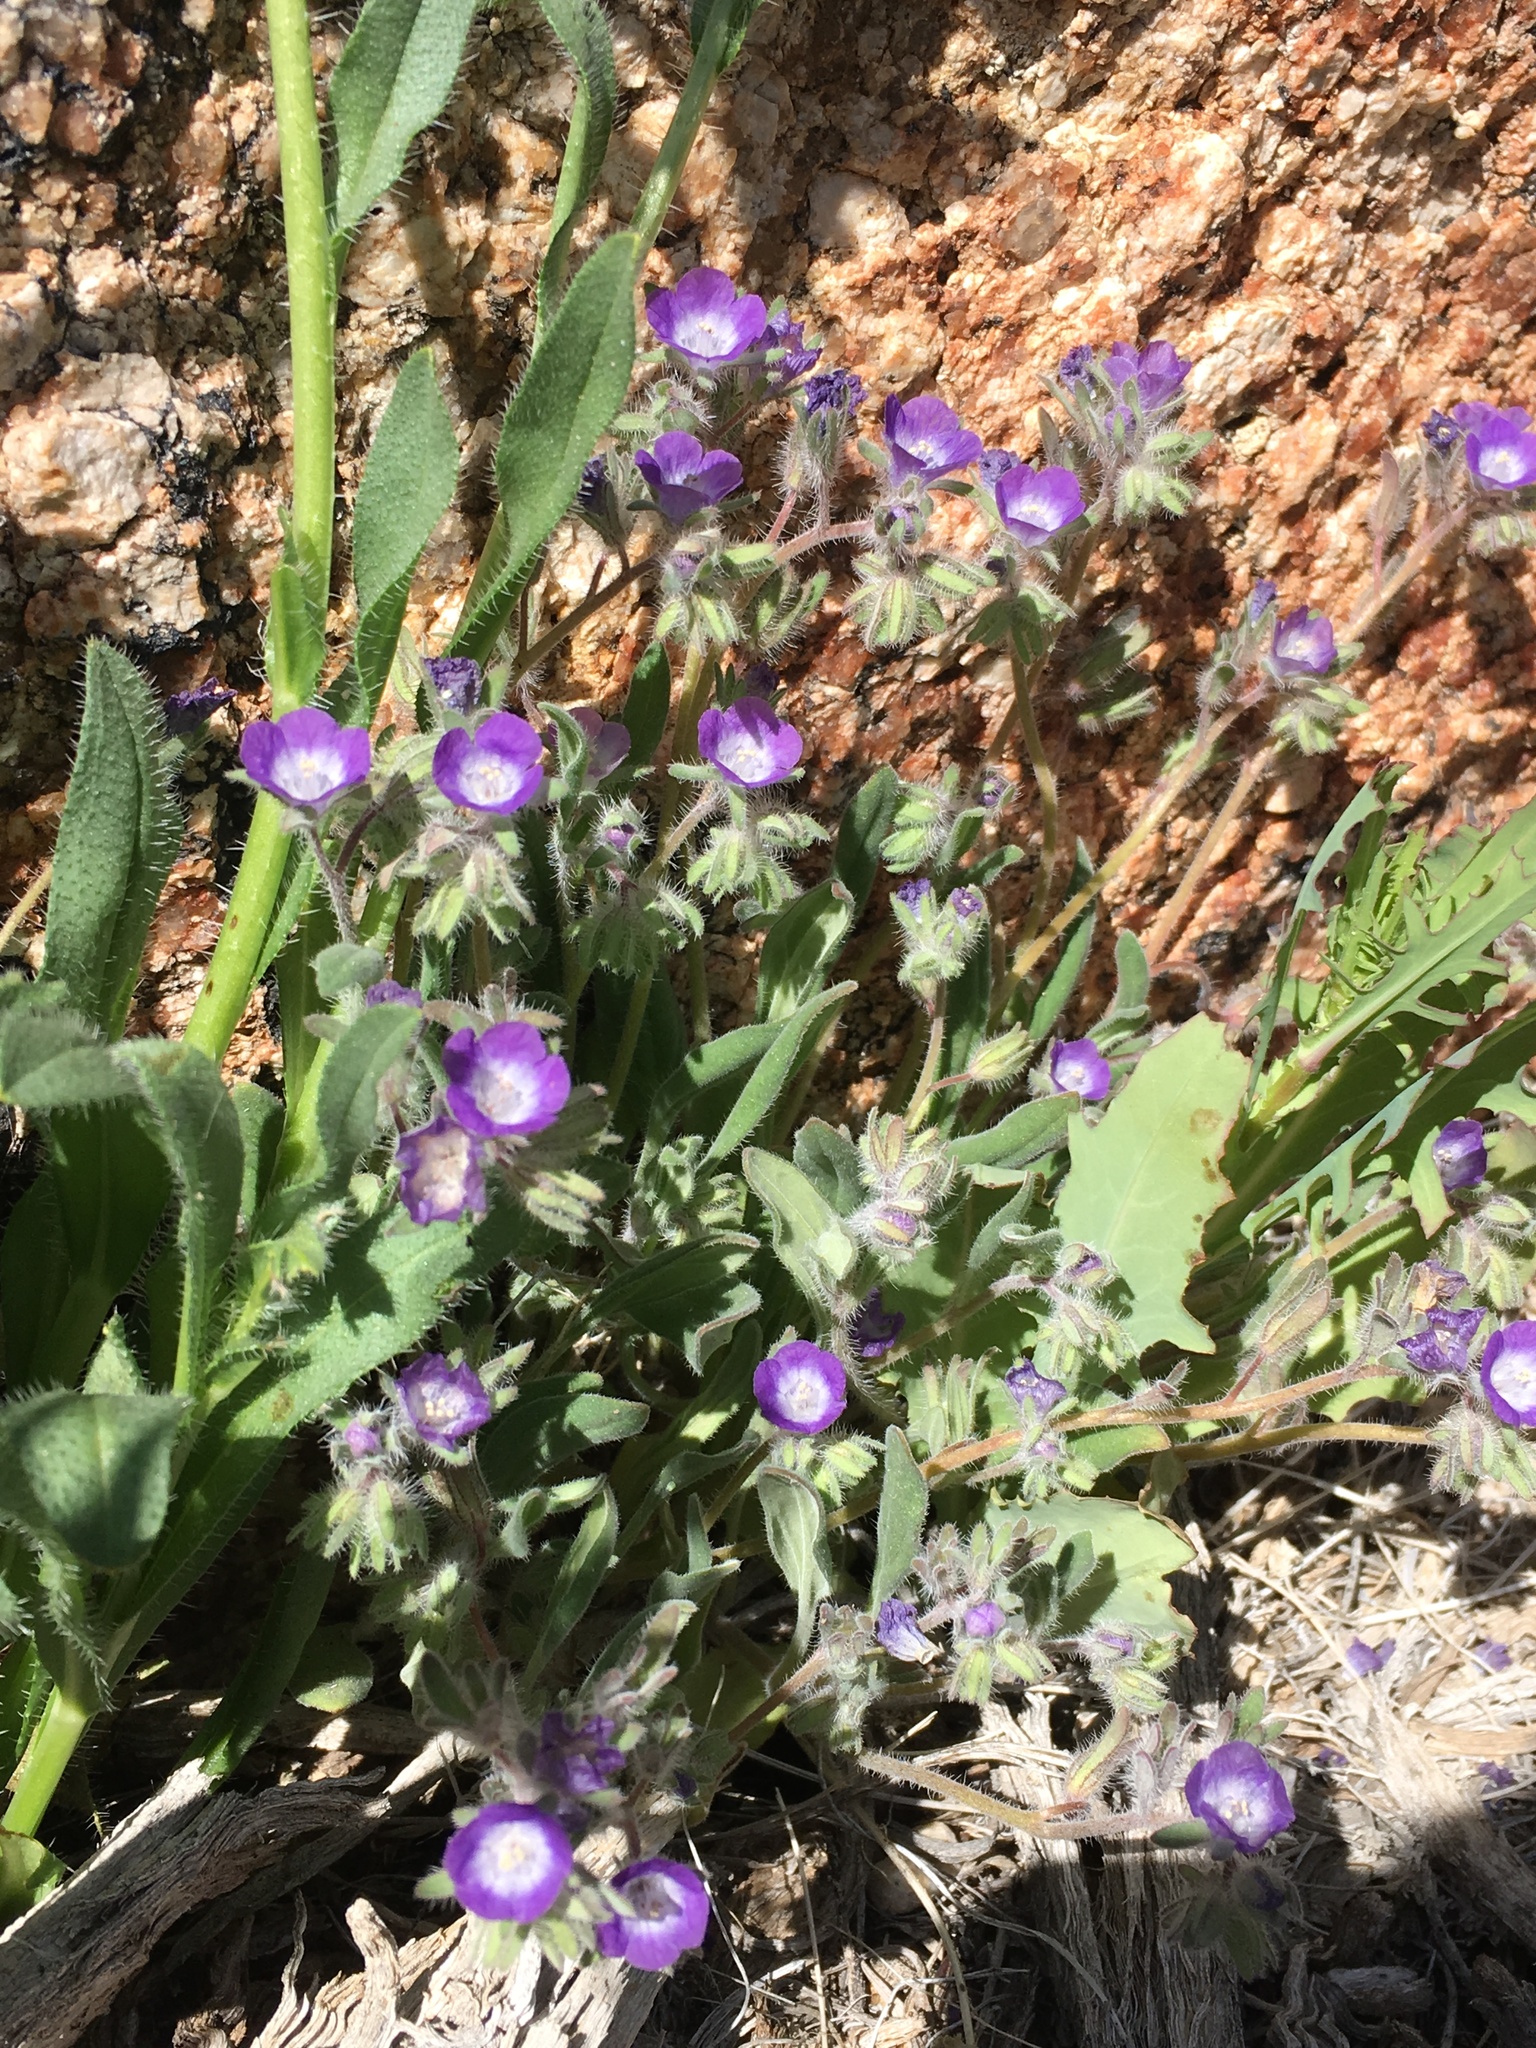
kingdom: Plantae
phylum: Tracheophyta
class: Magnoliopsida
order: Boraginales
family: Hydrophyllaceae
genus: Phacelia
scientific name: Phacelia curvipes
